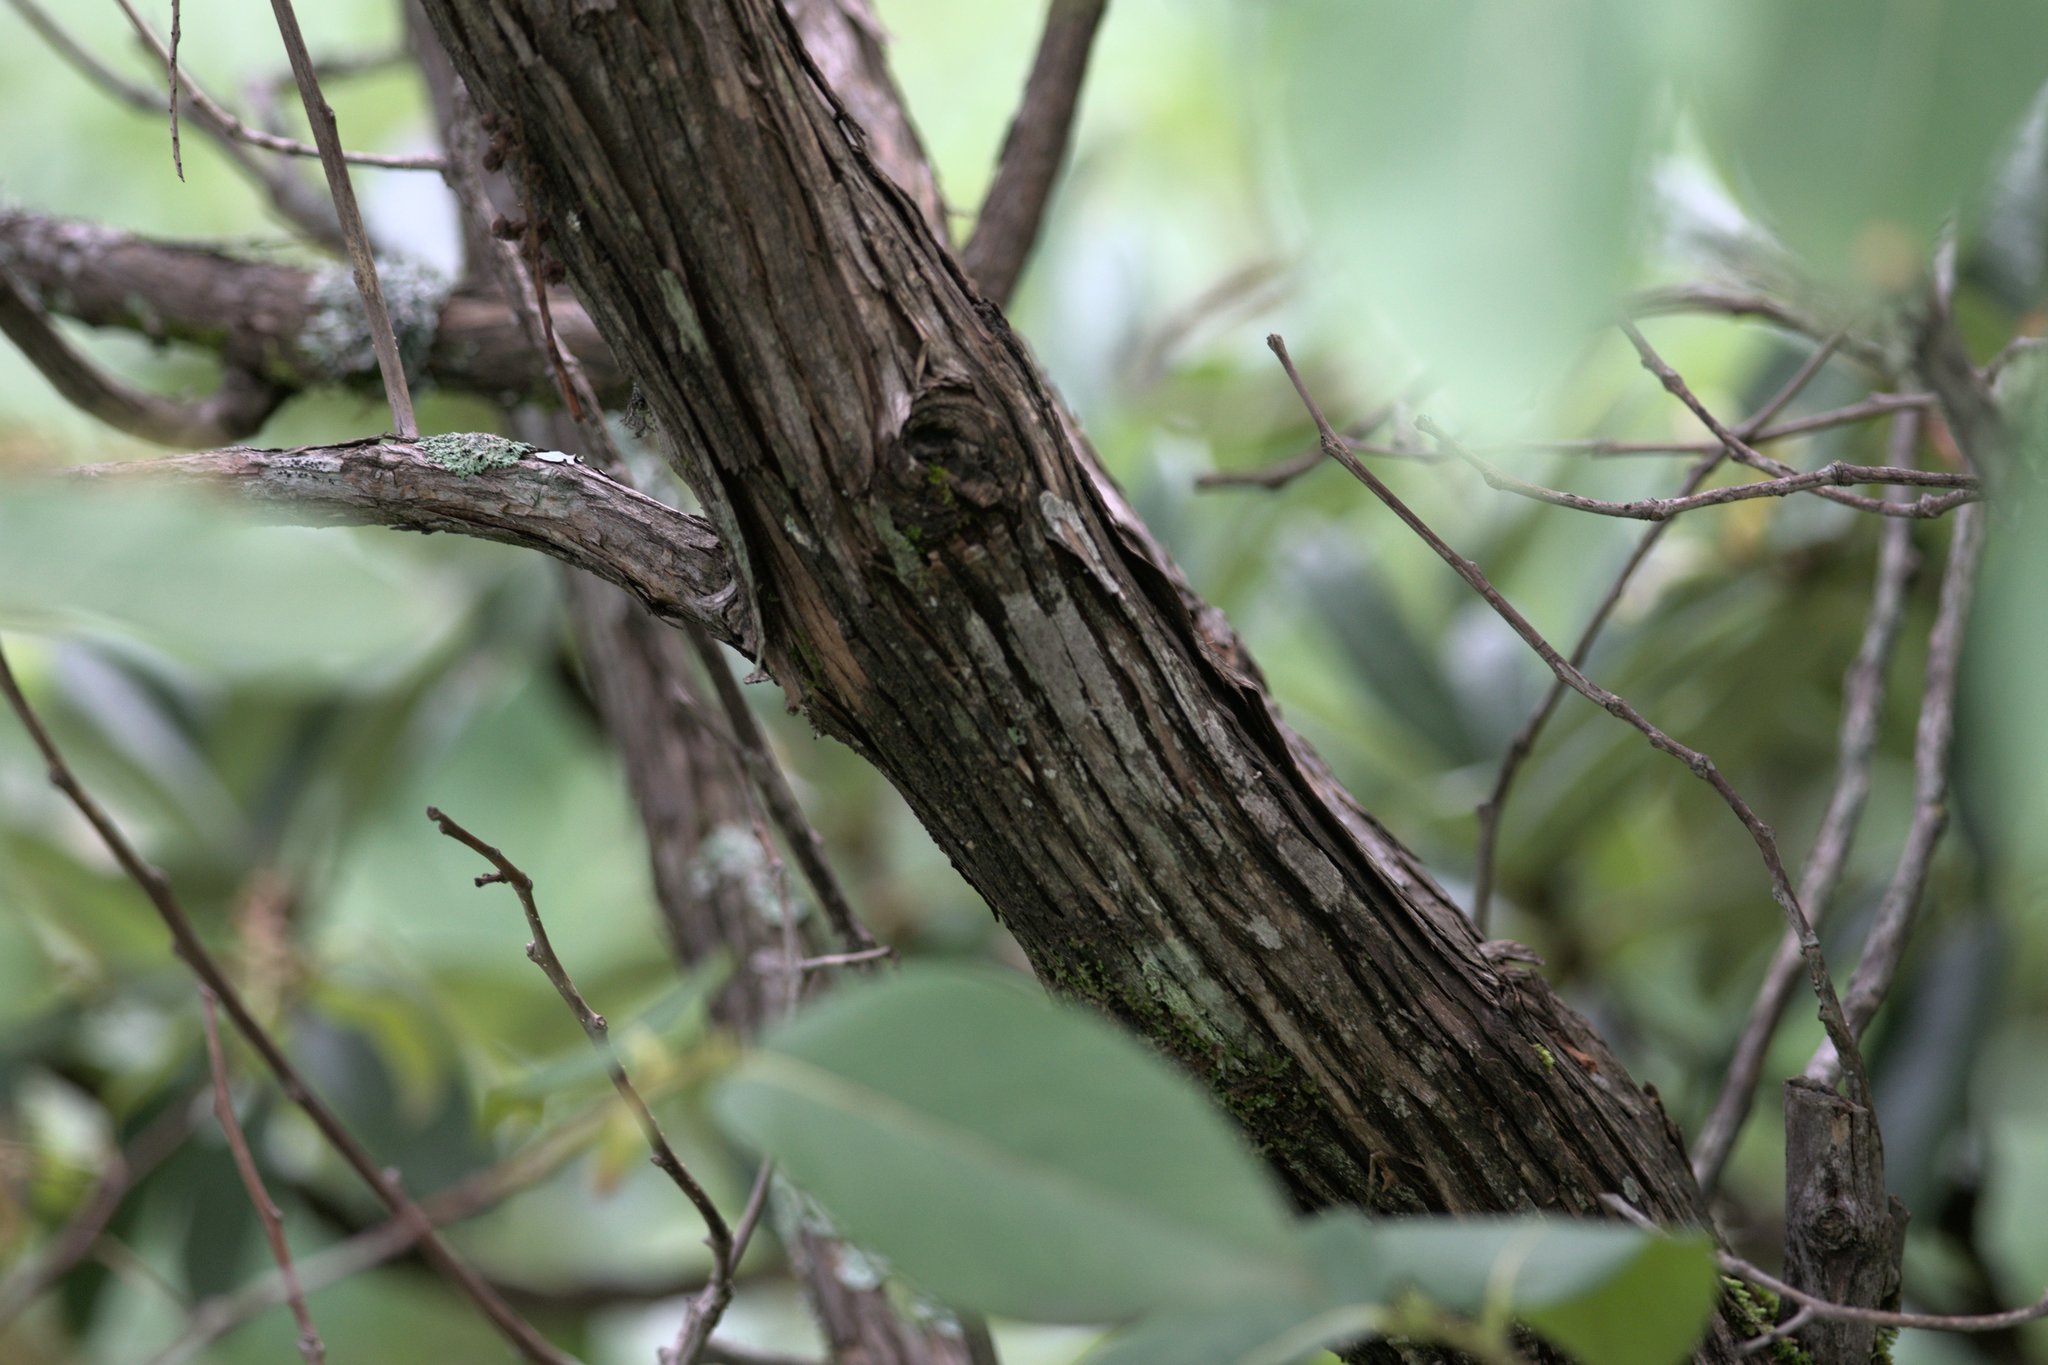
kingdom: Plantae
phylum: Tracheophyta
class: Magnoliopsida
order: Ericales
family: Ericaceae
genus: Lyonia
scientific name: Lyonia ovalifolia
